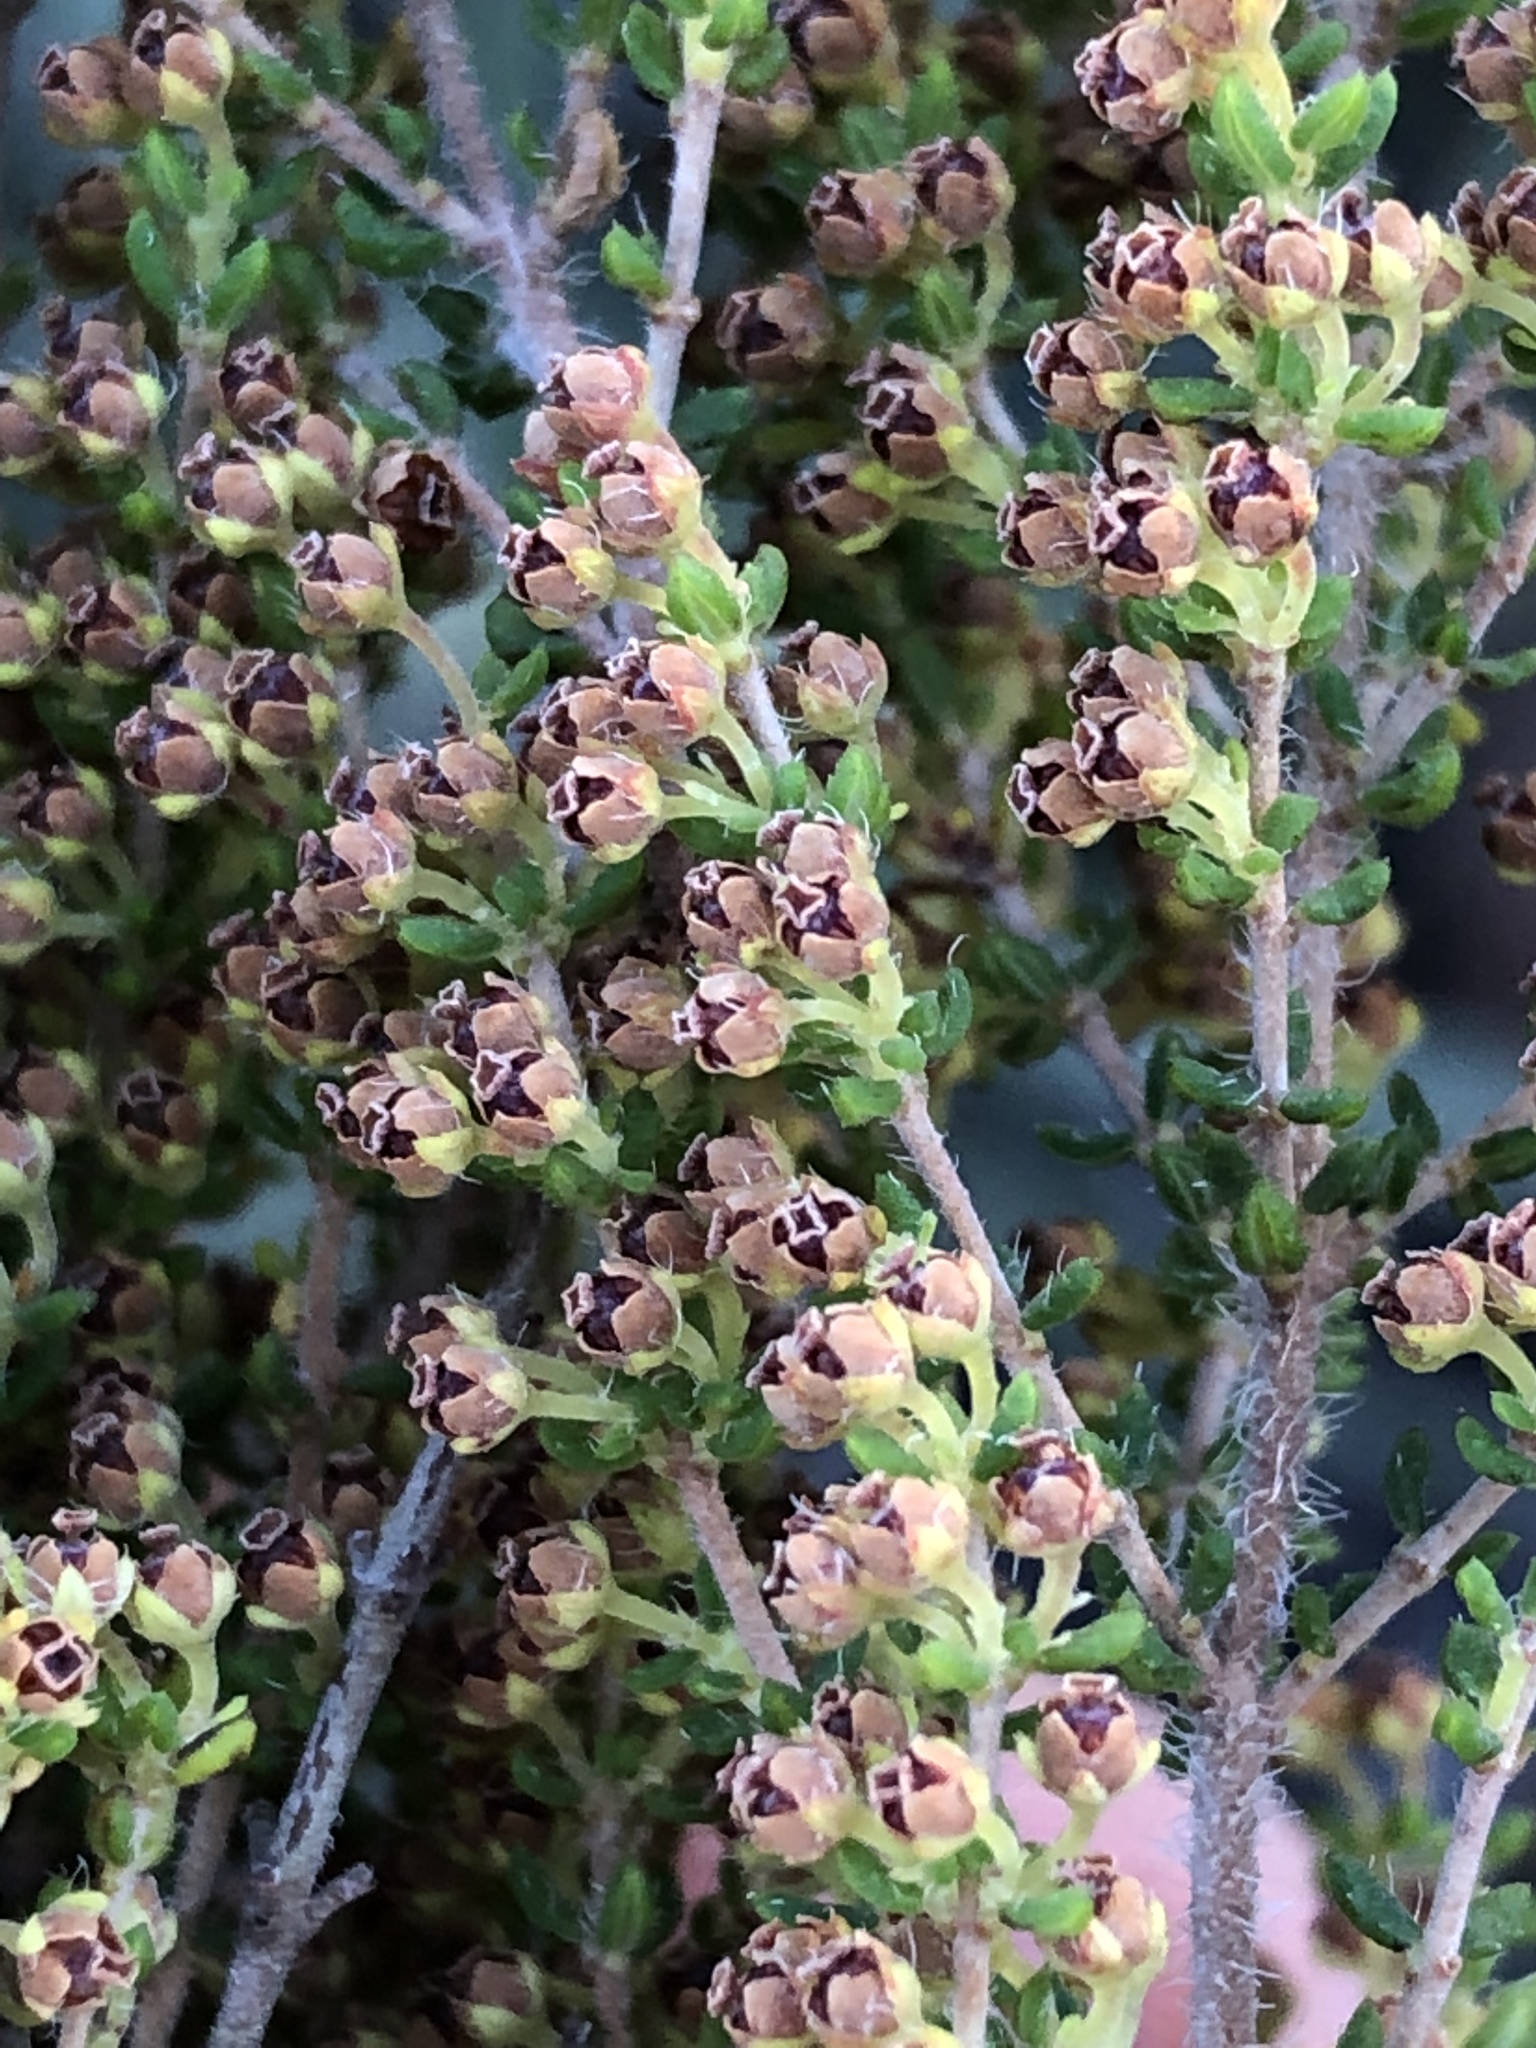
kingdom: Plantae
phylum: Tracheophyta
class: Magnoliopsida
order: Ericales
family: Ericaceae
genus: Erica
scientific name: Erica leucopelta
